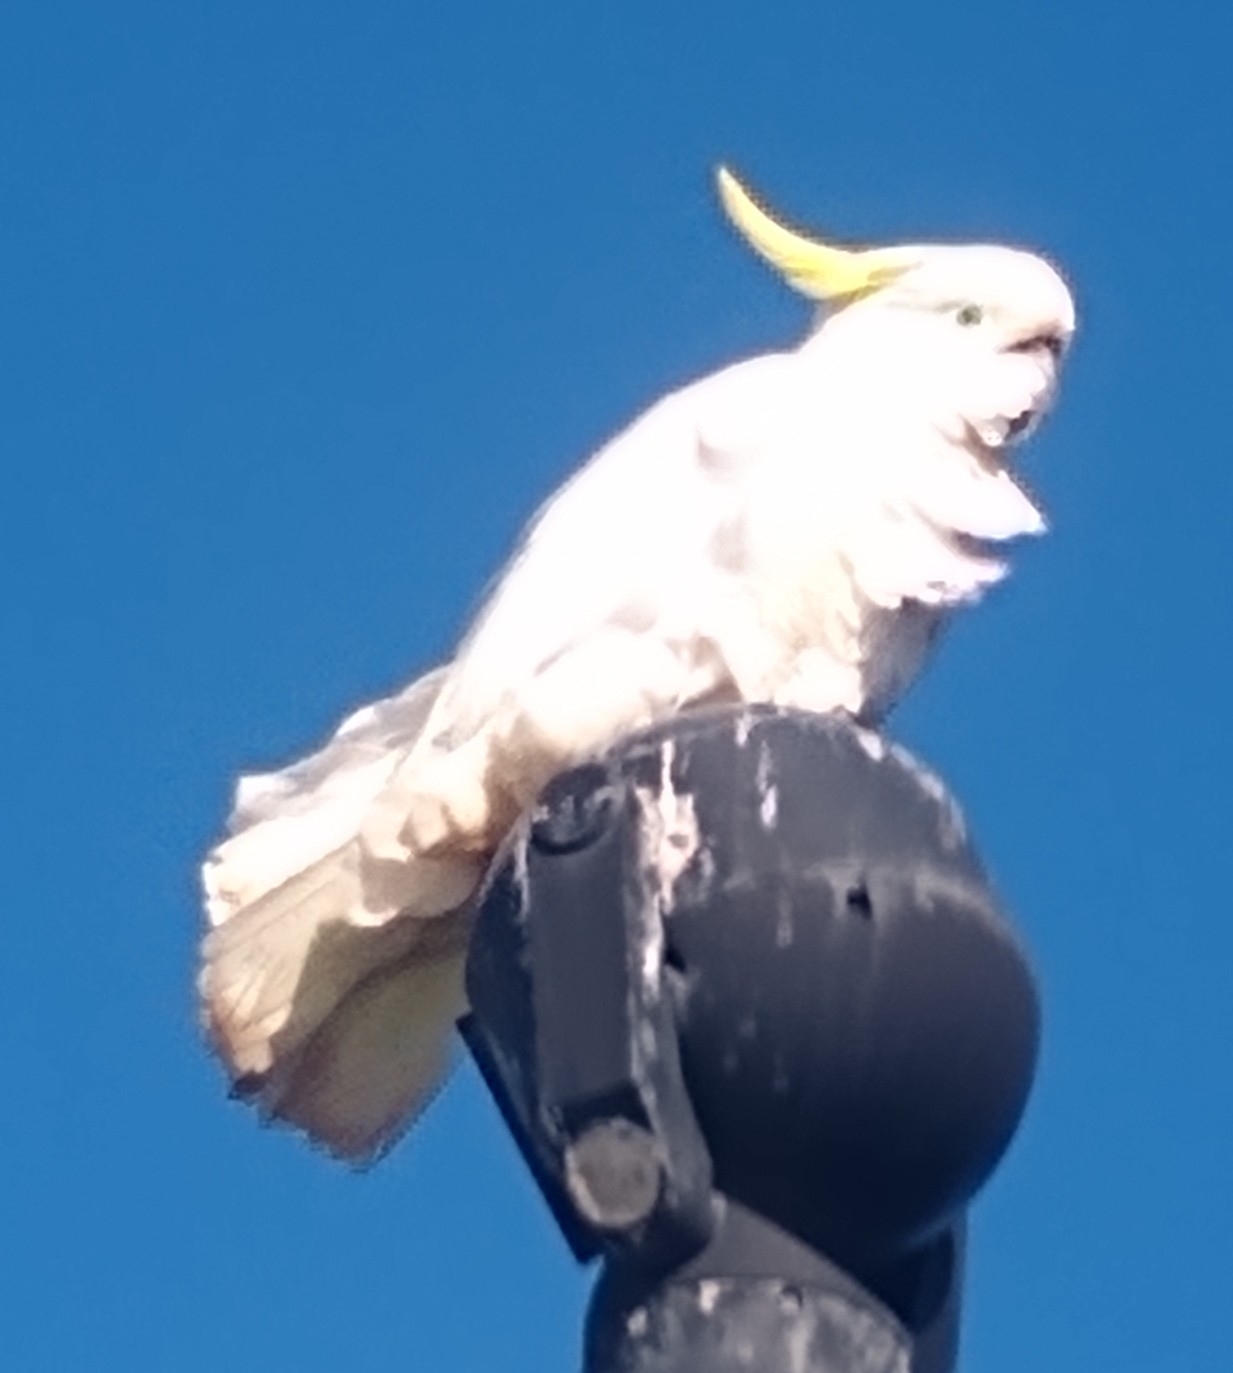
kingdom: Animalia
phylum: Chordata
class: Aves
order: Psittaciformes
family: Psittacidae
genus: Cacatua
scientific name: Cacatua galerita
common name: Sulphur-crested cockatoo
